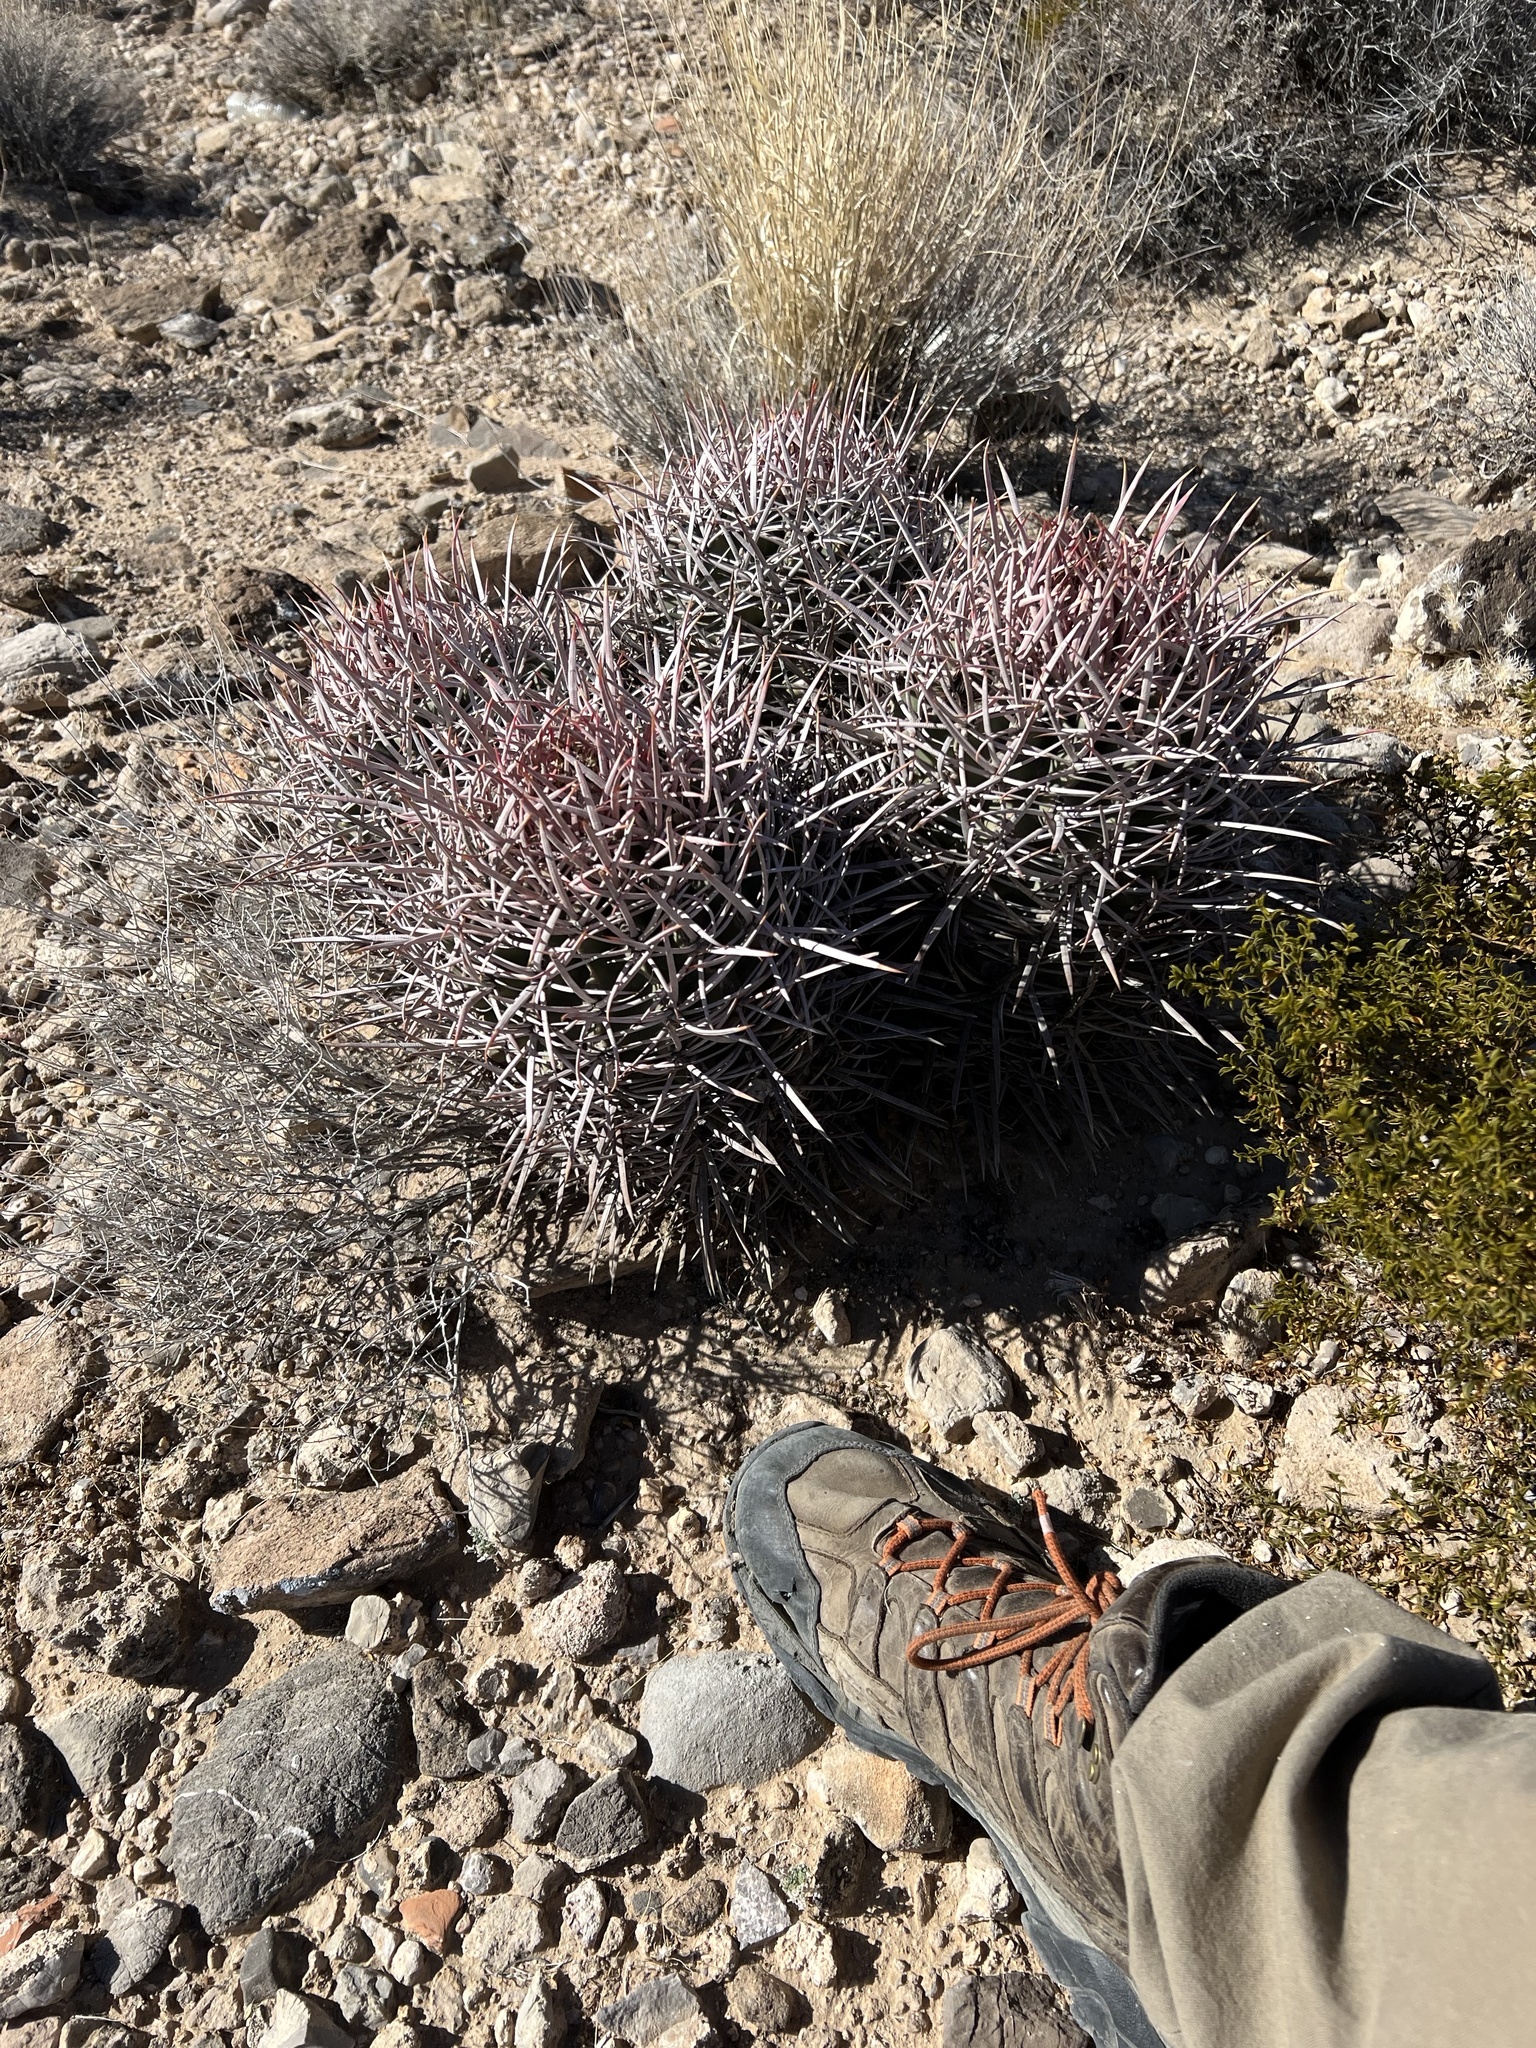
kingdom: Plantae
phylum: Tracheophyta
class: Magnoliopsida
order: Caryophyllales
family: Cactaceae
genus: Echinocactus
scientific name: Echinocactus polycephalus
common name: Cottontop cactus
